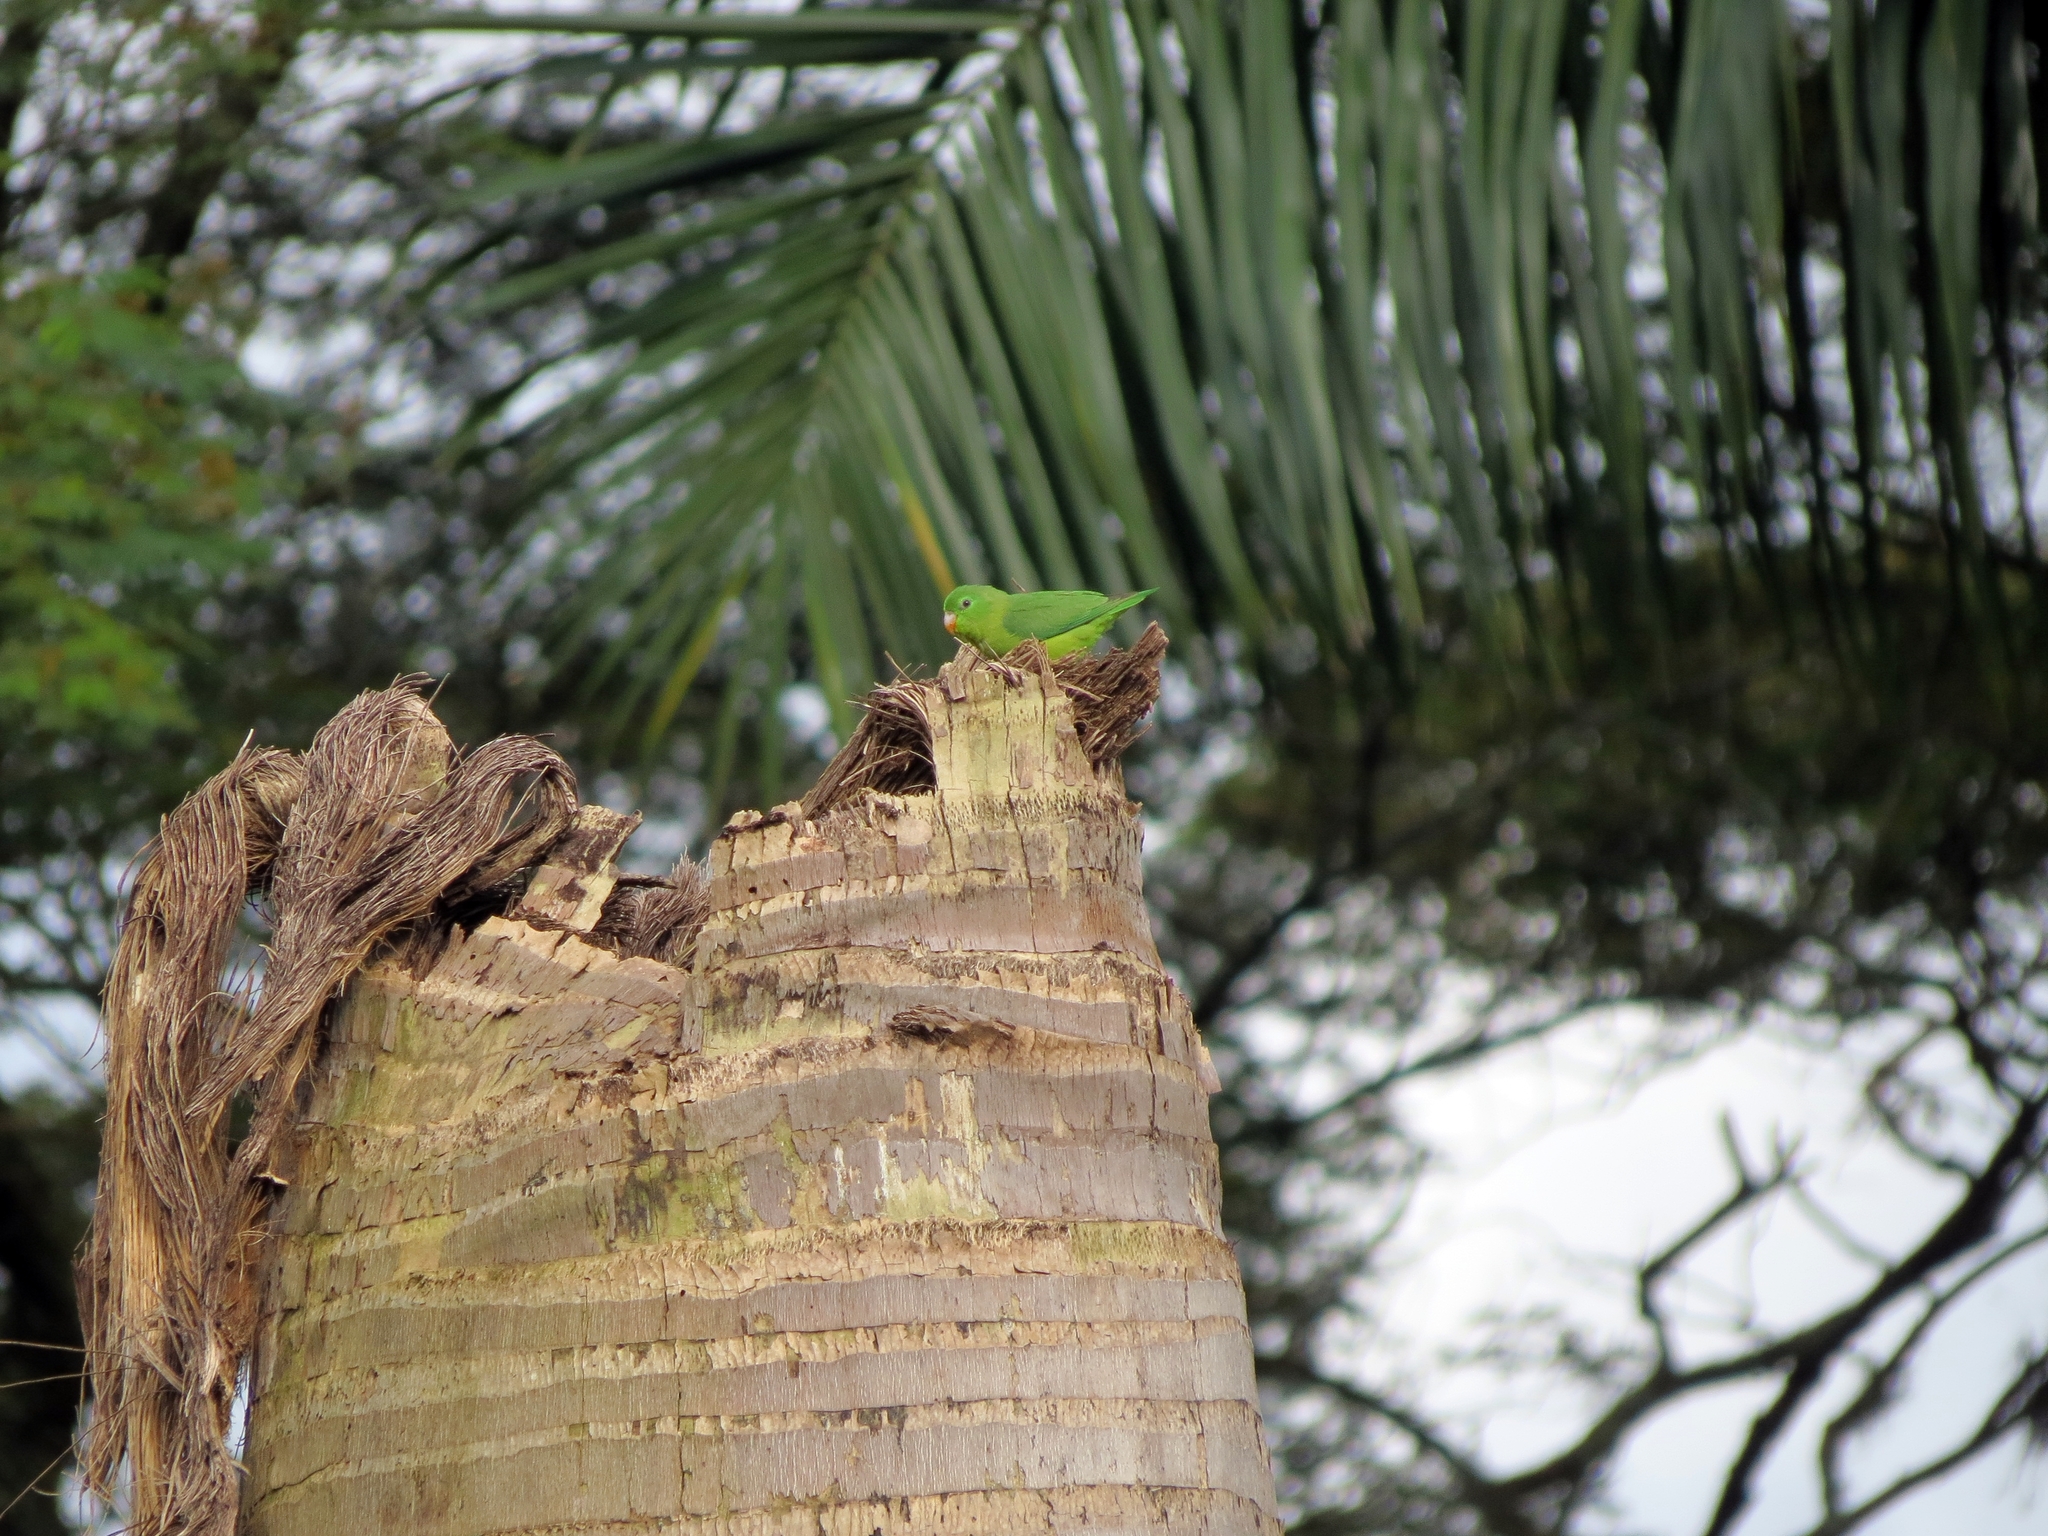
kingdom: Animalia
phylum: Chordata
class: Aves
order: Psittaciformes
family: Psittacidae
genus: Forpus
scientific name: Forpus conspicillatus
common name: Spectacled parrotlet
